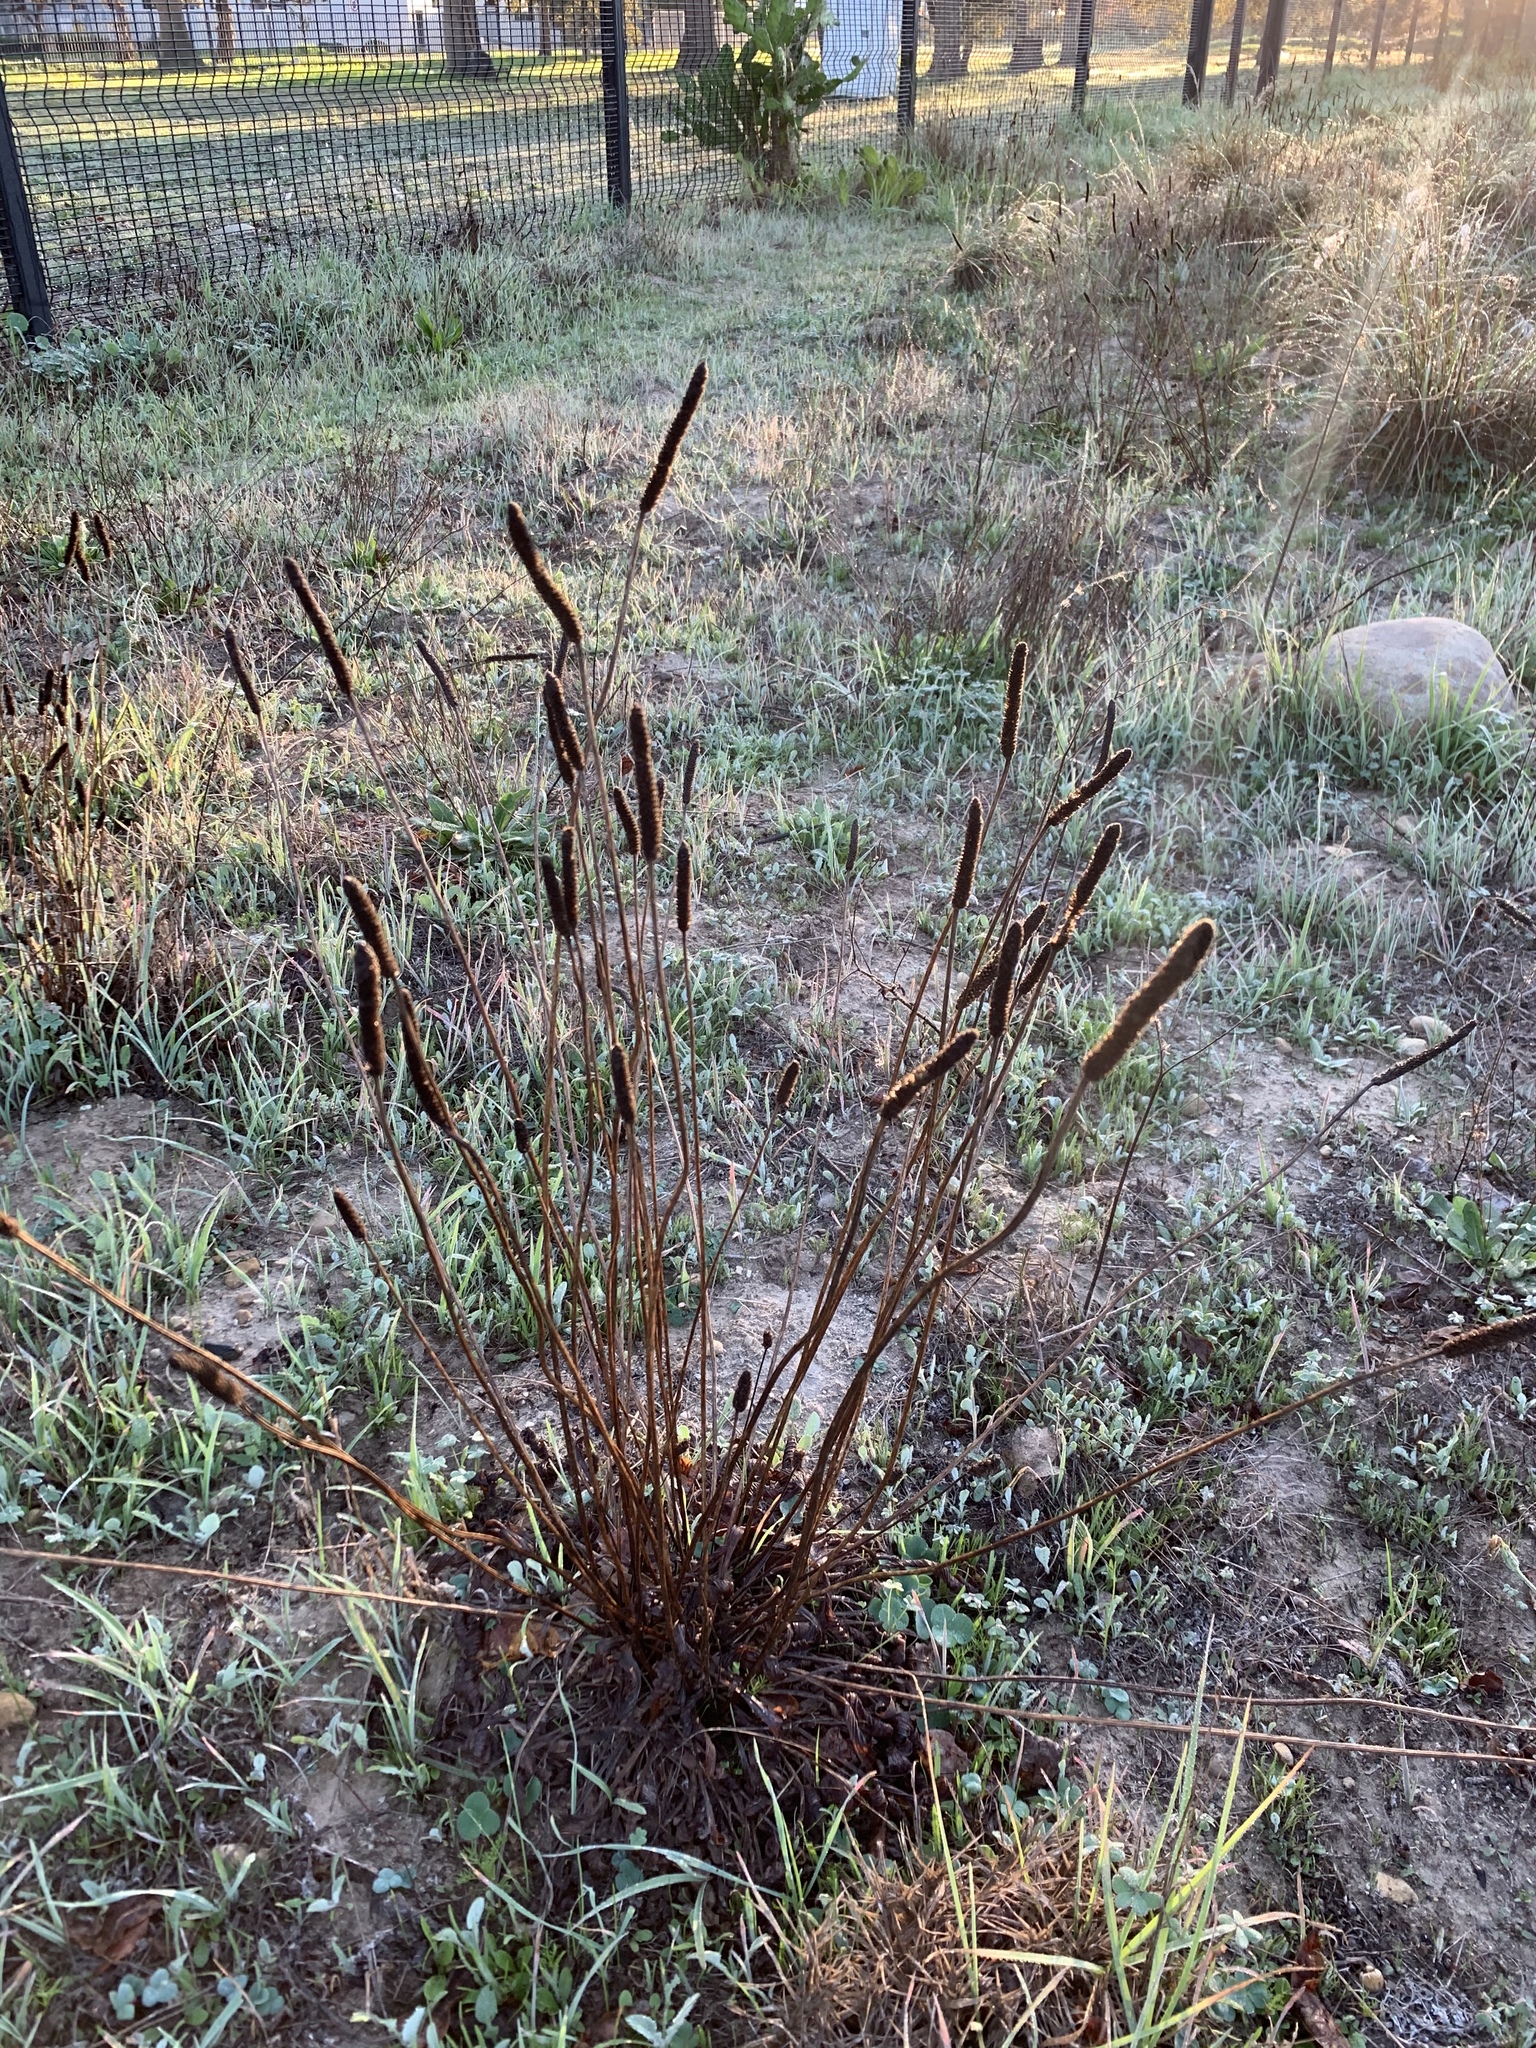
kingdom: Plantae
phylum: Tracheophyta
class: Magnoliopsida
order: Lamiales
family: Plantaginaceae
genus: Plantago
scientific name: Plantago lanceolata
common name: Ribwort plantain
